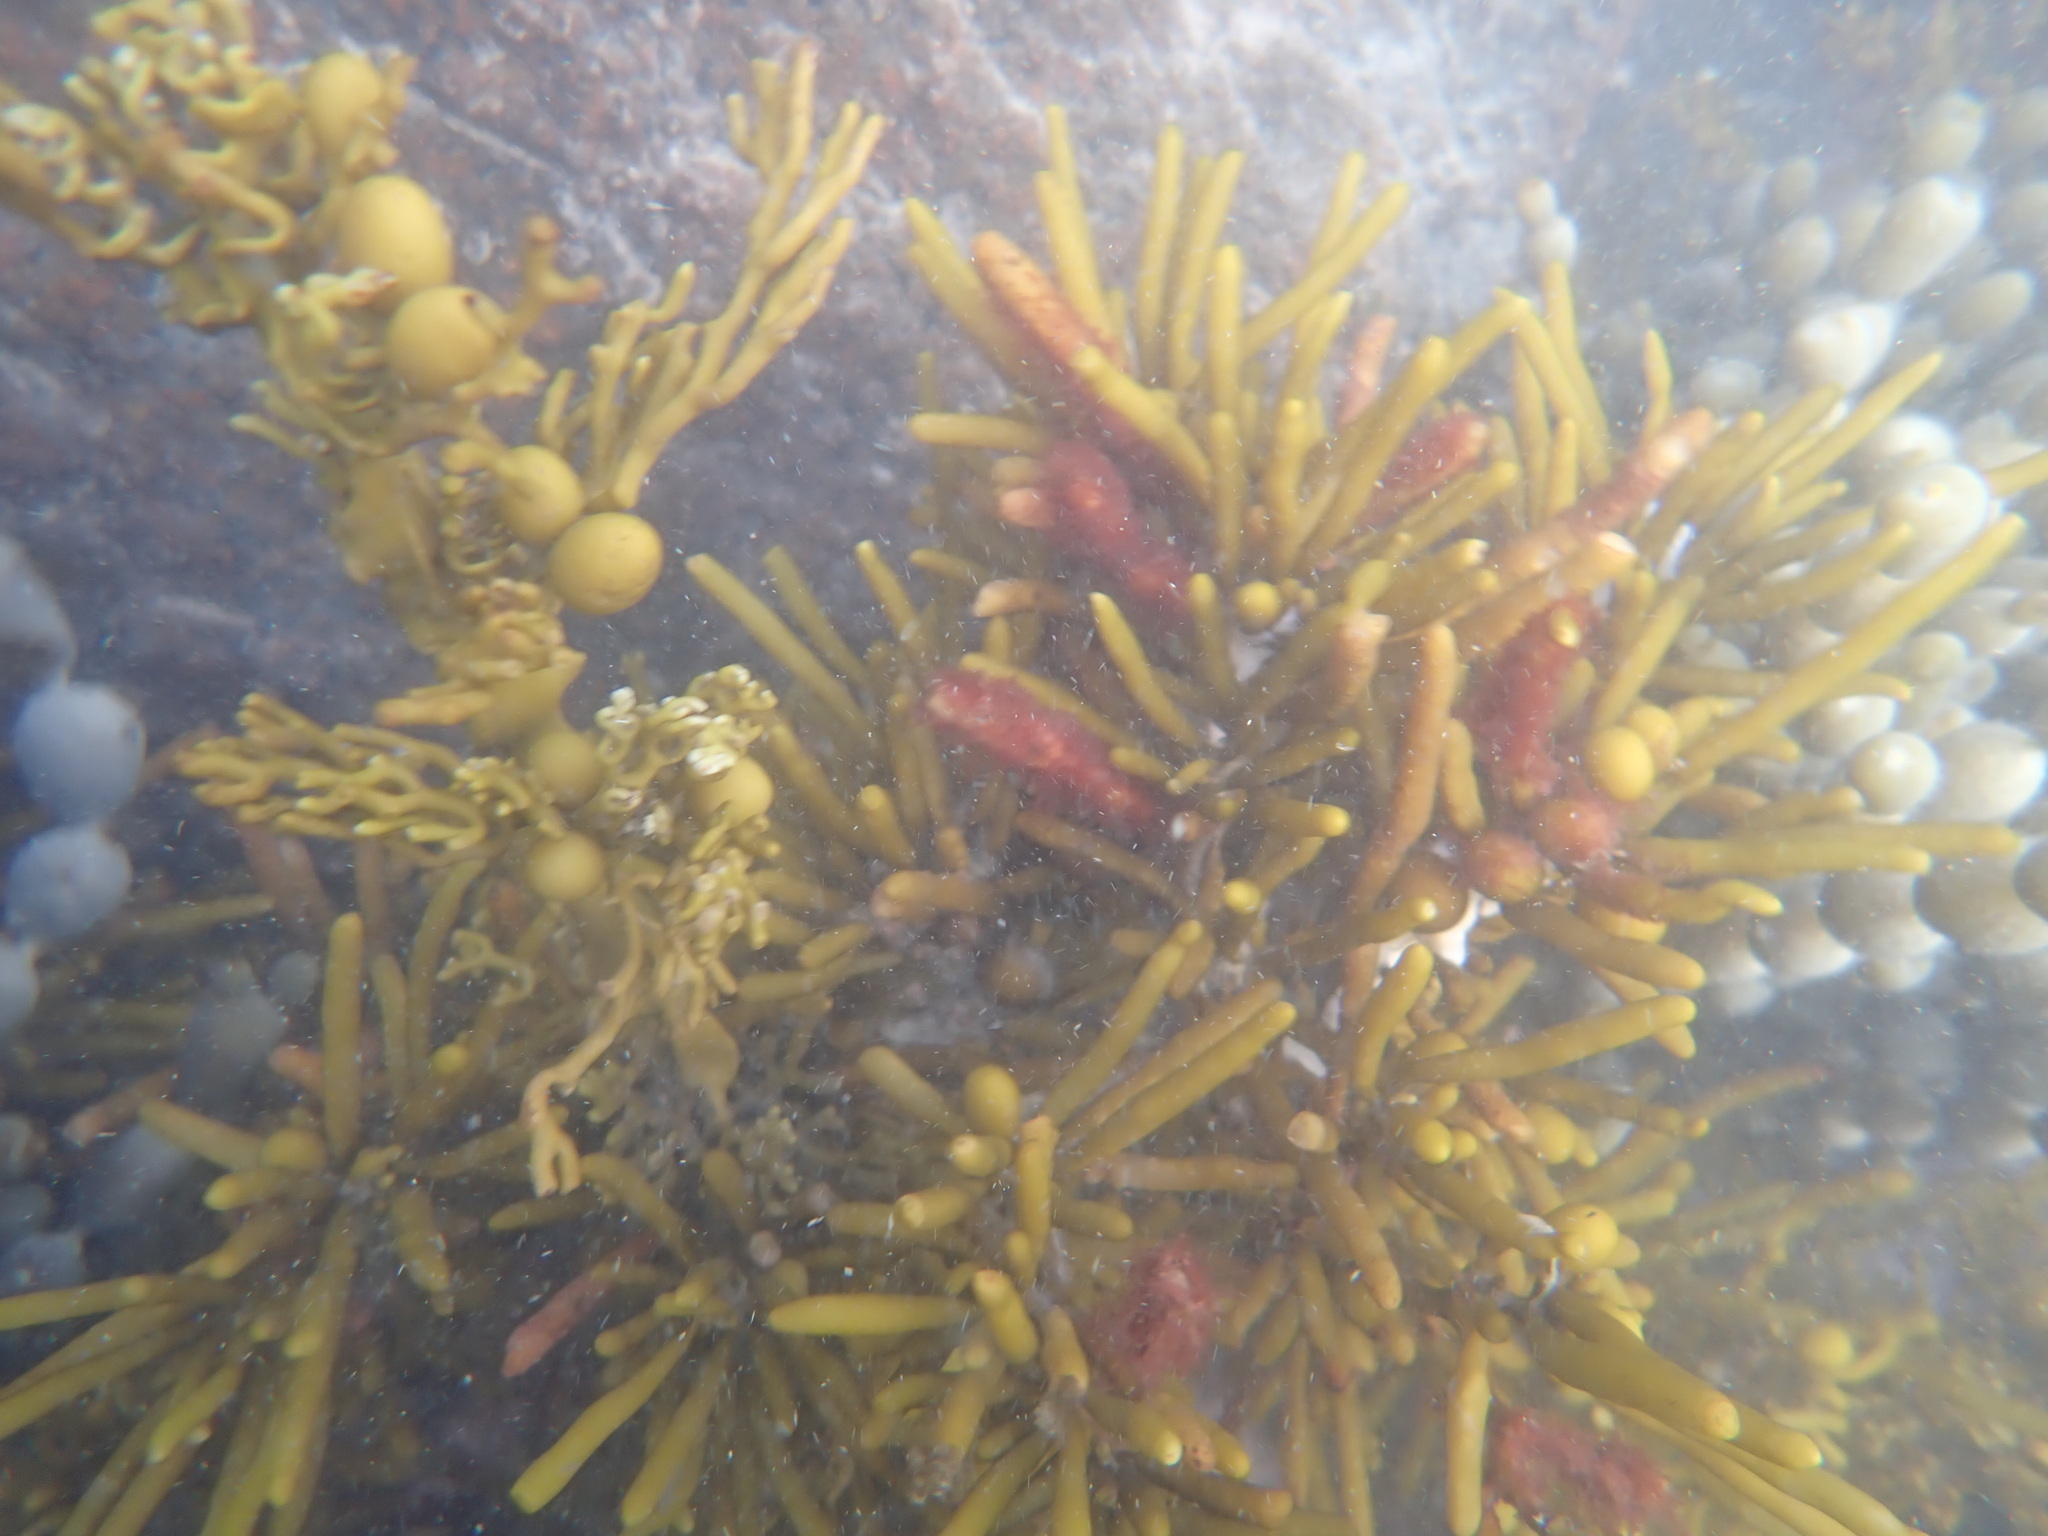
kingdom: Chromista
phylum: Ochrophyta
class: Phaeophyceae
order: Fucales
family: Sargassaceae
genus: Cystophora
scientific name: Cystophora torulosa
